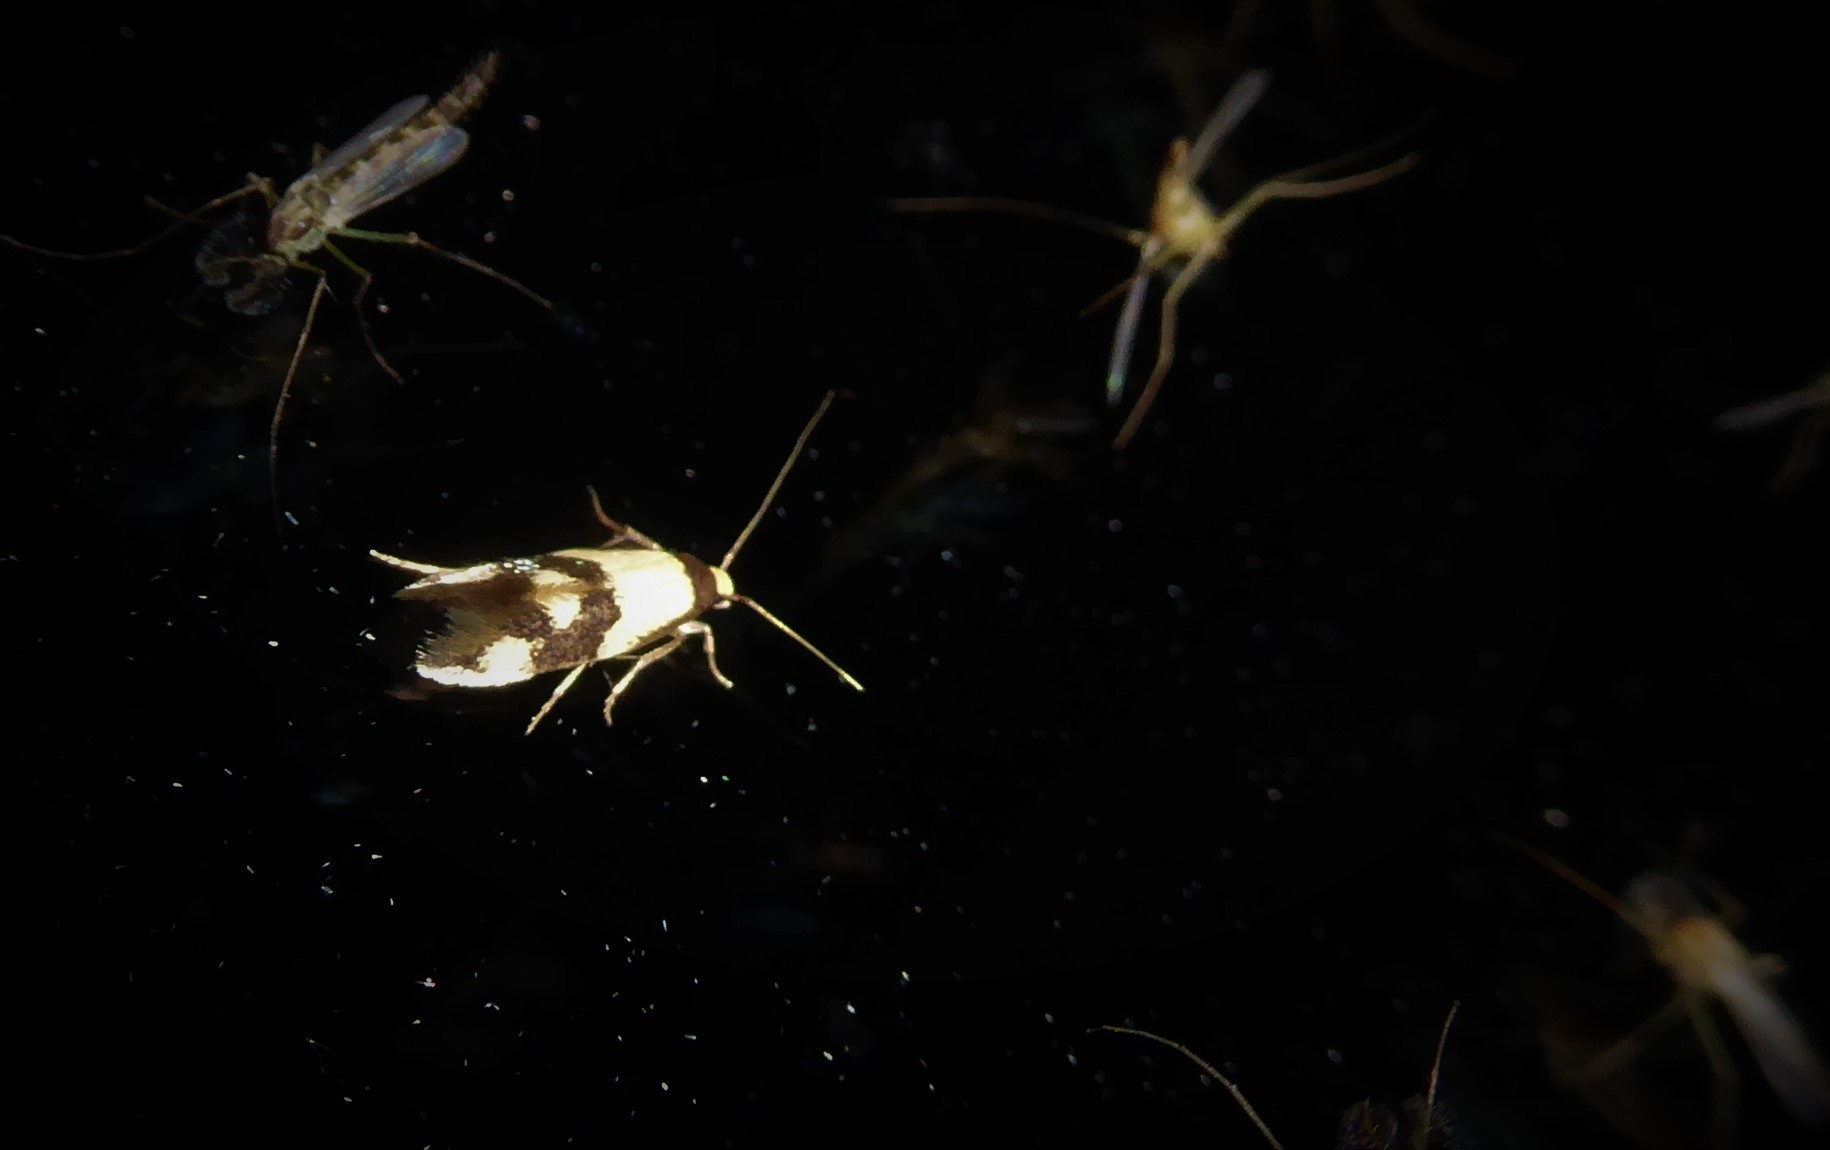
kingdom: Animalia
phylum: Arthropoda
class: Insecta
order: Lepidoptera
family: Tineidae
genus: Opogona
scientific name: Opogona comptella
